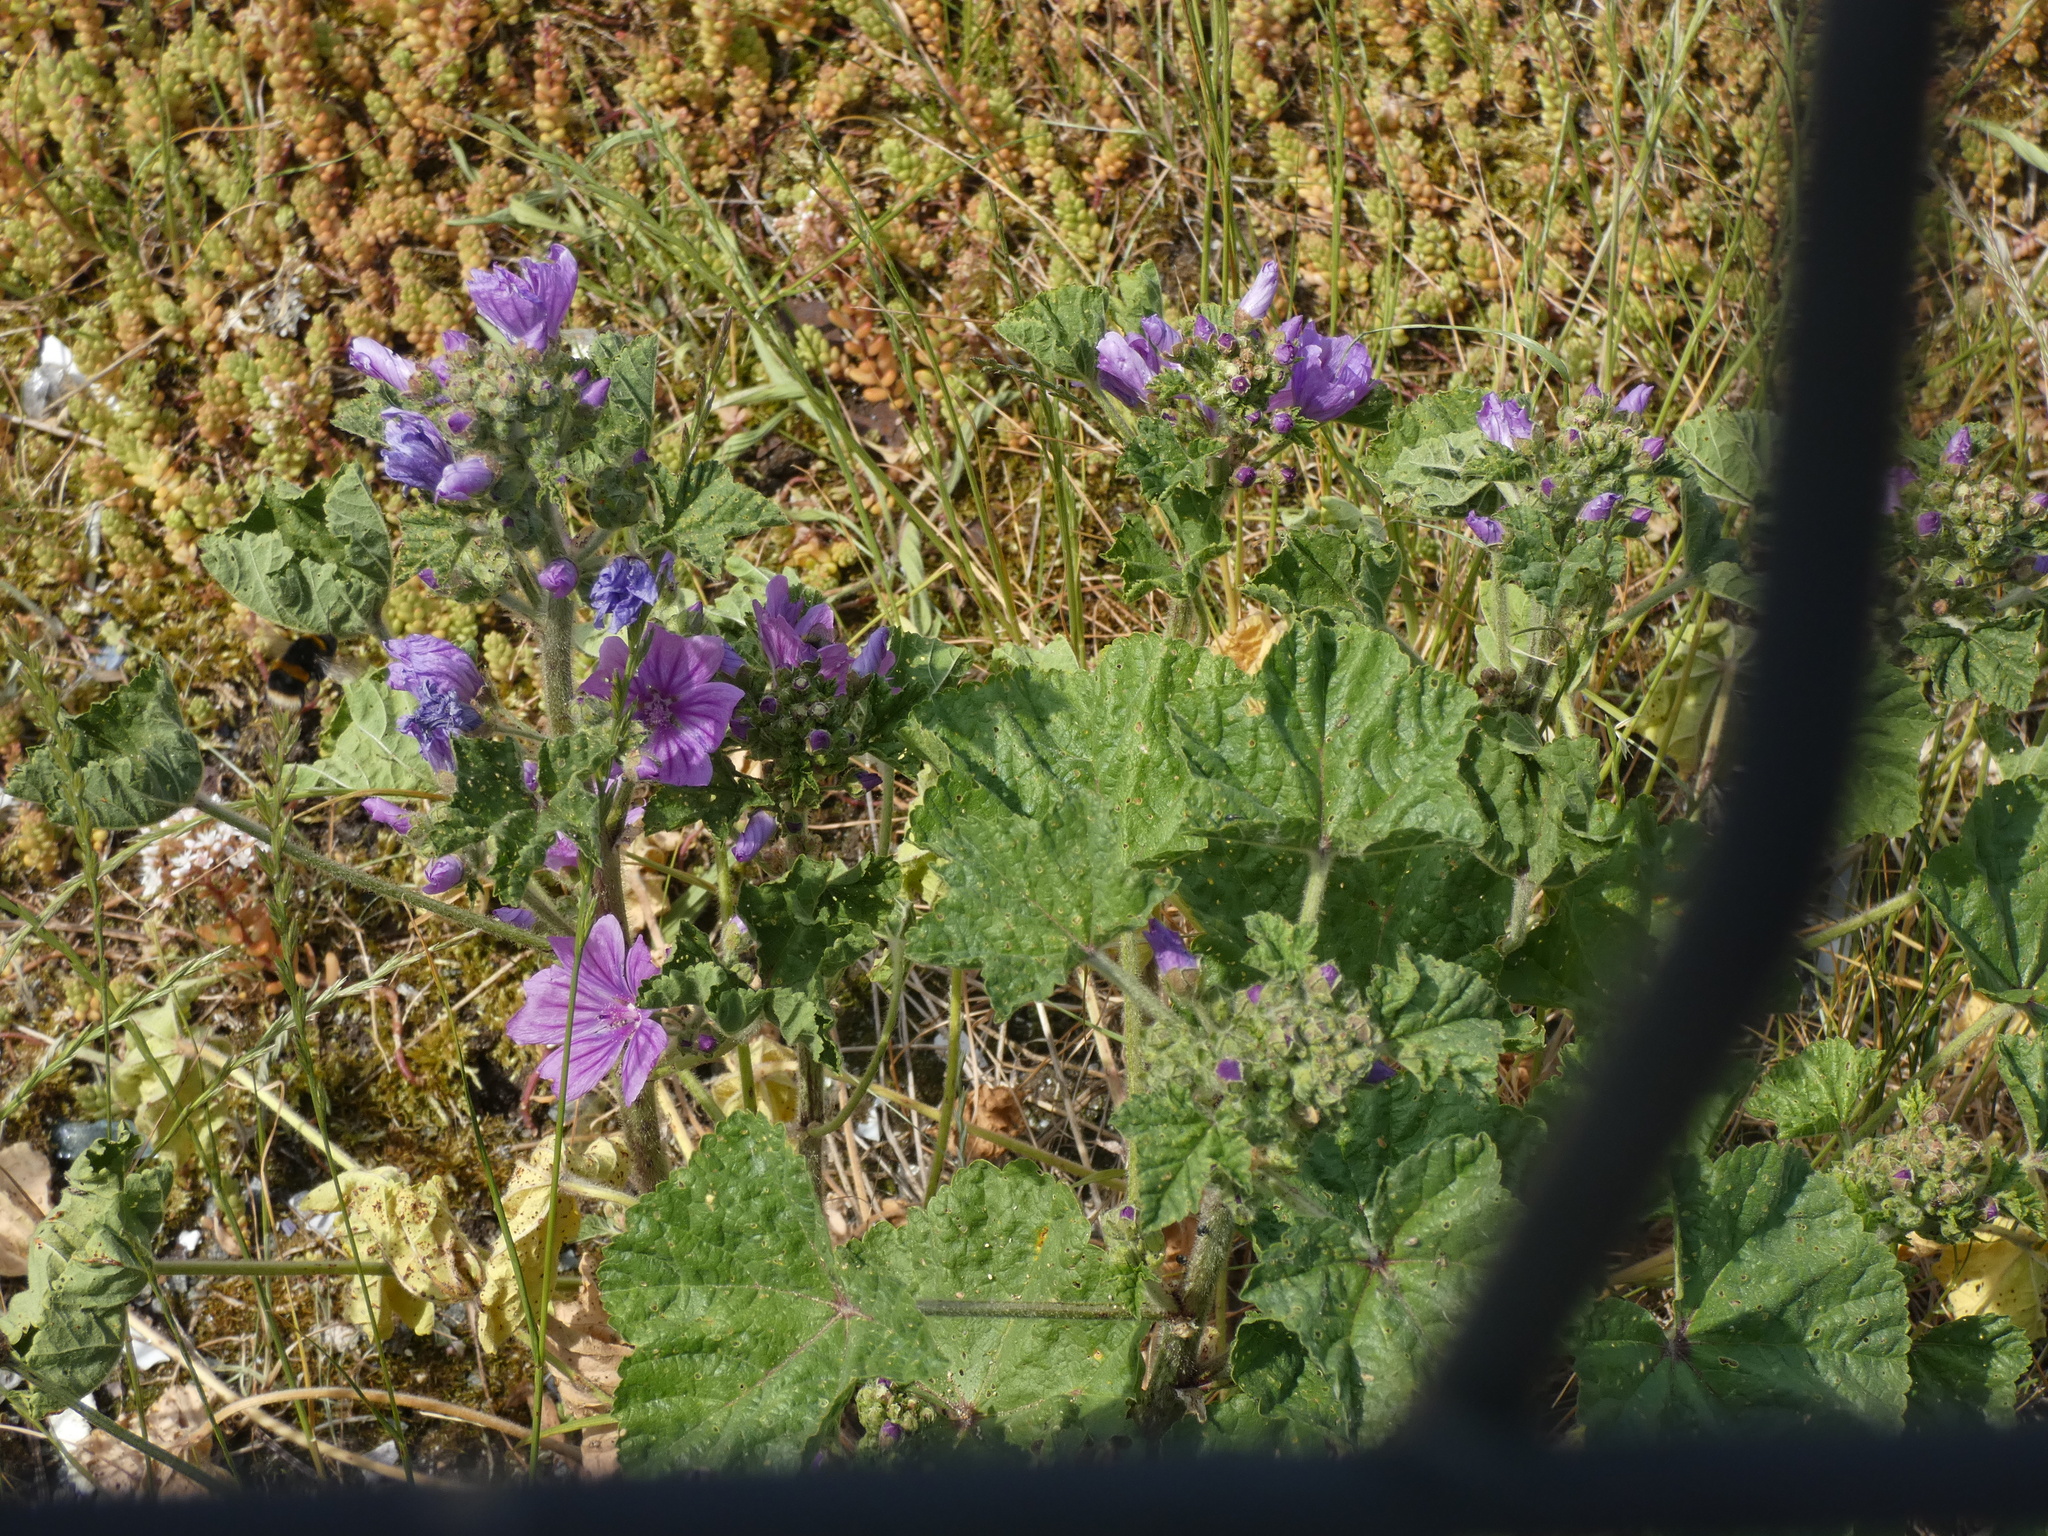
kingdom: Plantae
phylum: Tracheophyta
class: Magnoliopsida
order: Malvales
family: Malvaceae
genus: Malva
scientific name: Malva sylvestris
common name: Common mallow
